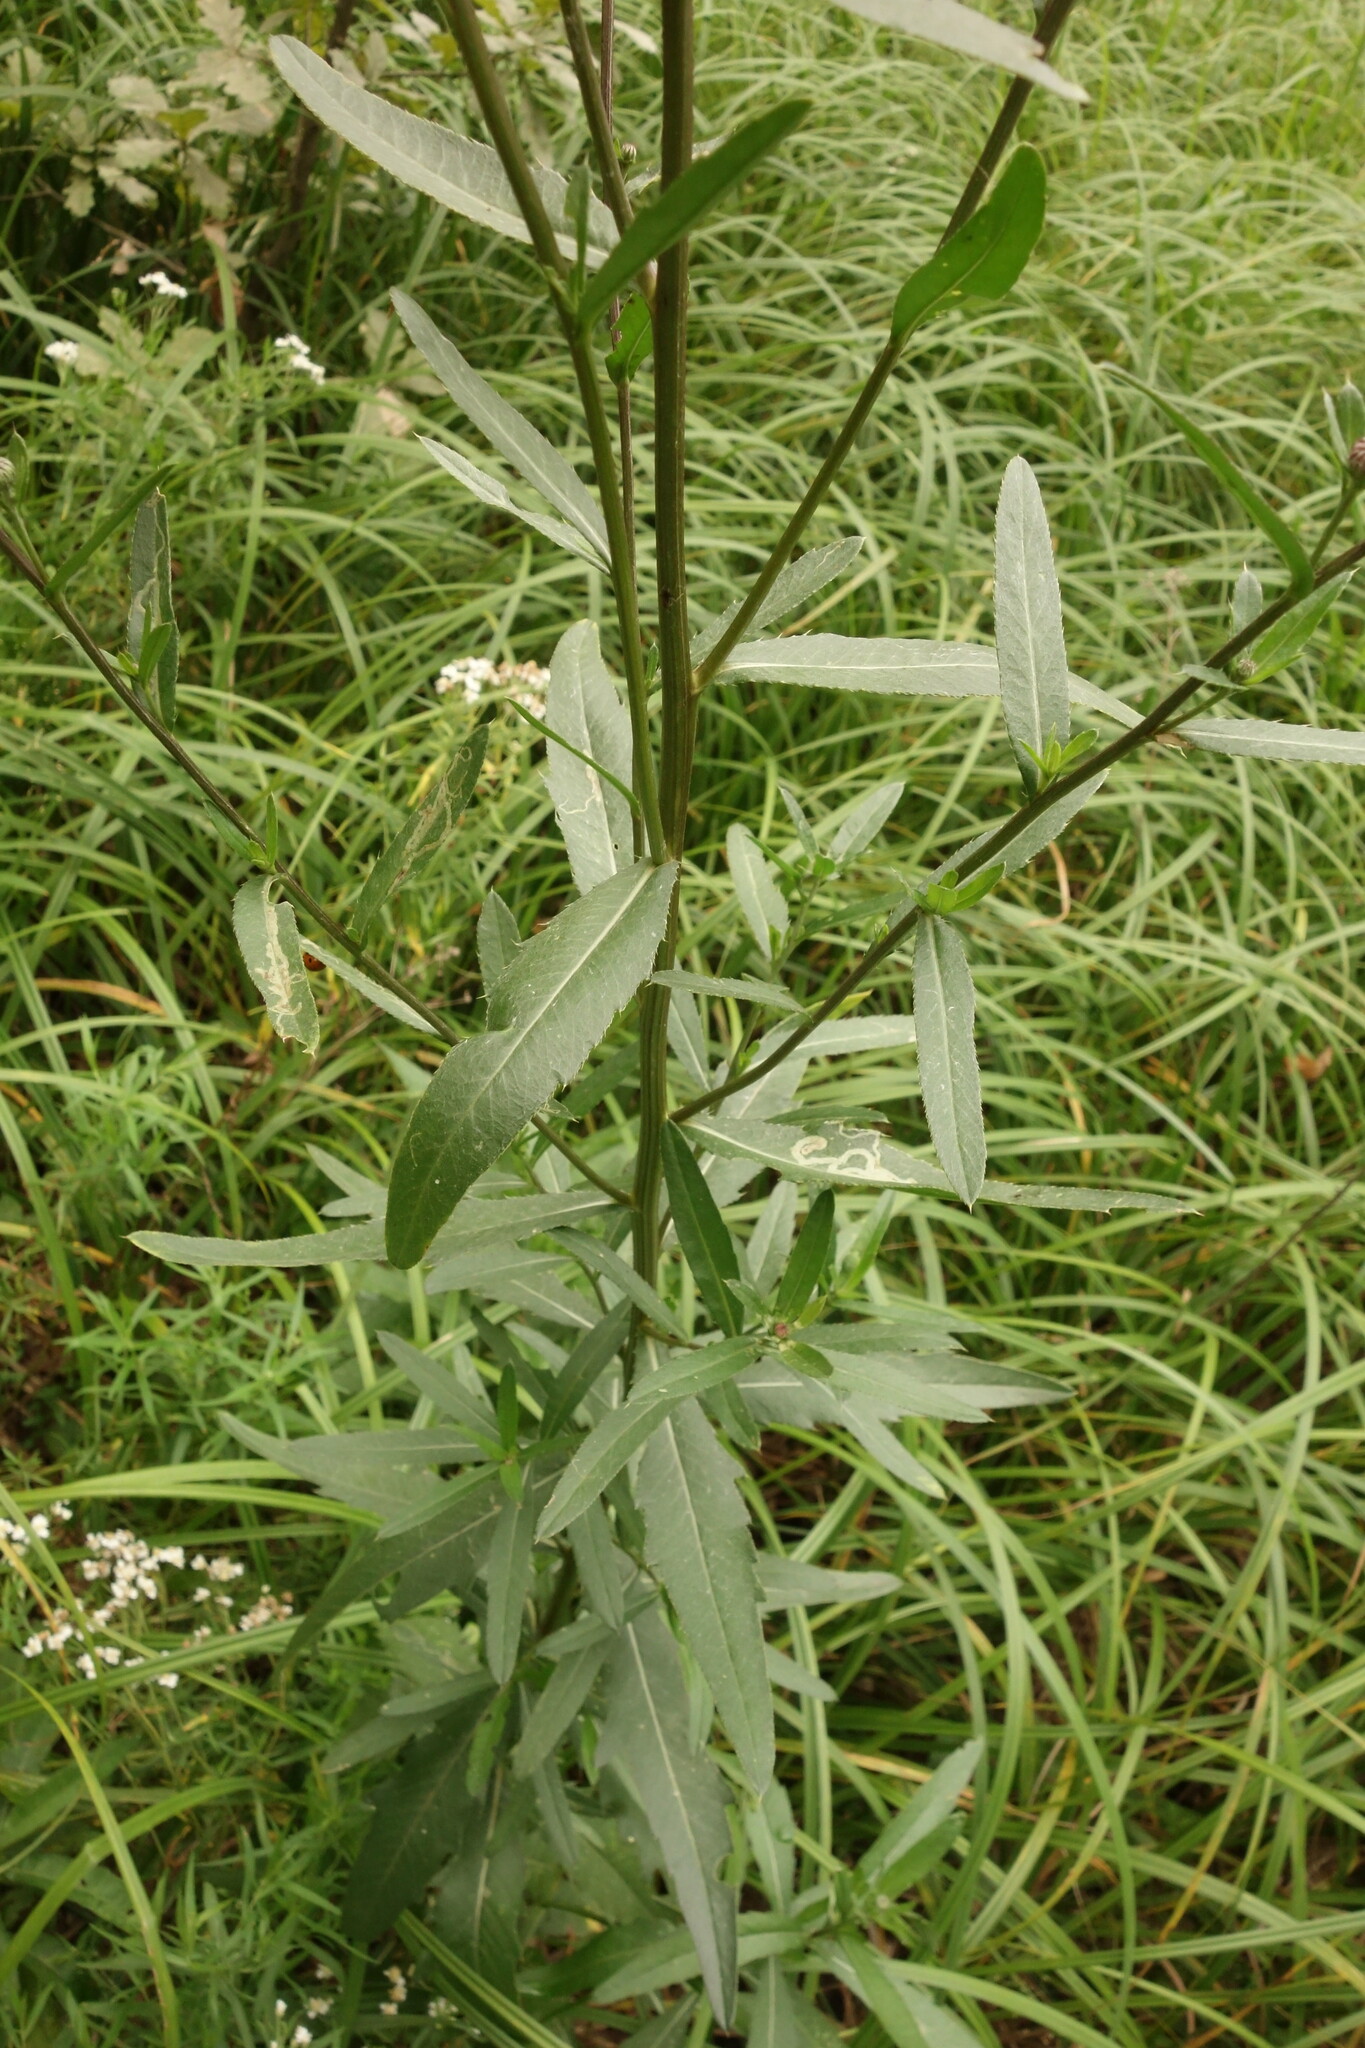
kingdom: Plantae
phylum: Tracheophyta
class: Magnoliopsida
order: Asterales
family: Asteraceae
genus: Cirsium
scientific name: Cirsium arvense
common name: Creeping thistle
